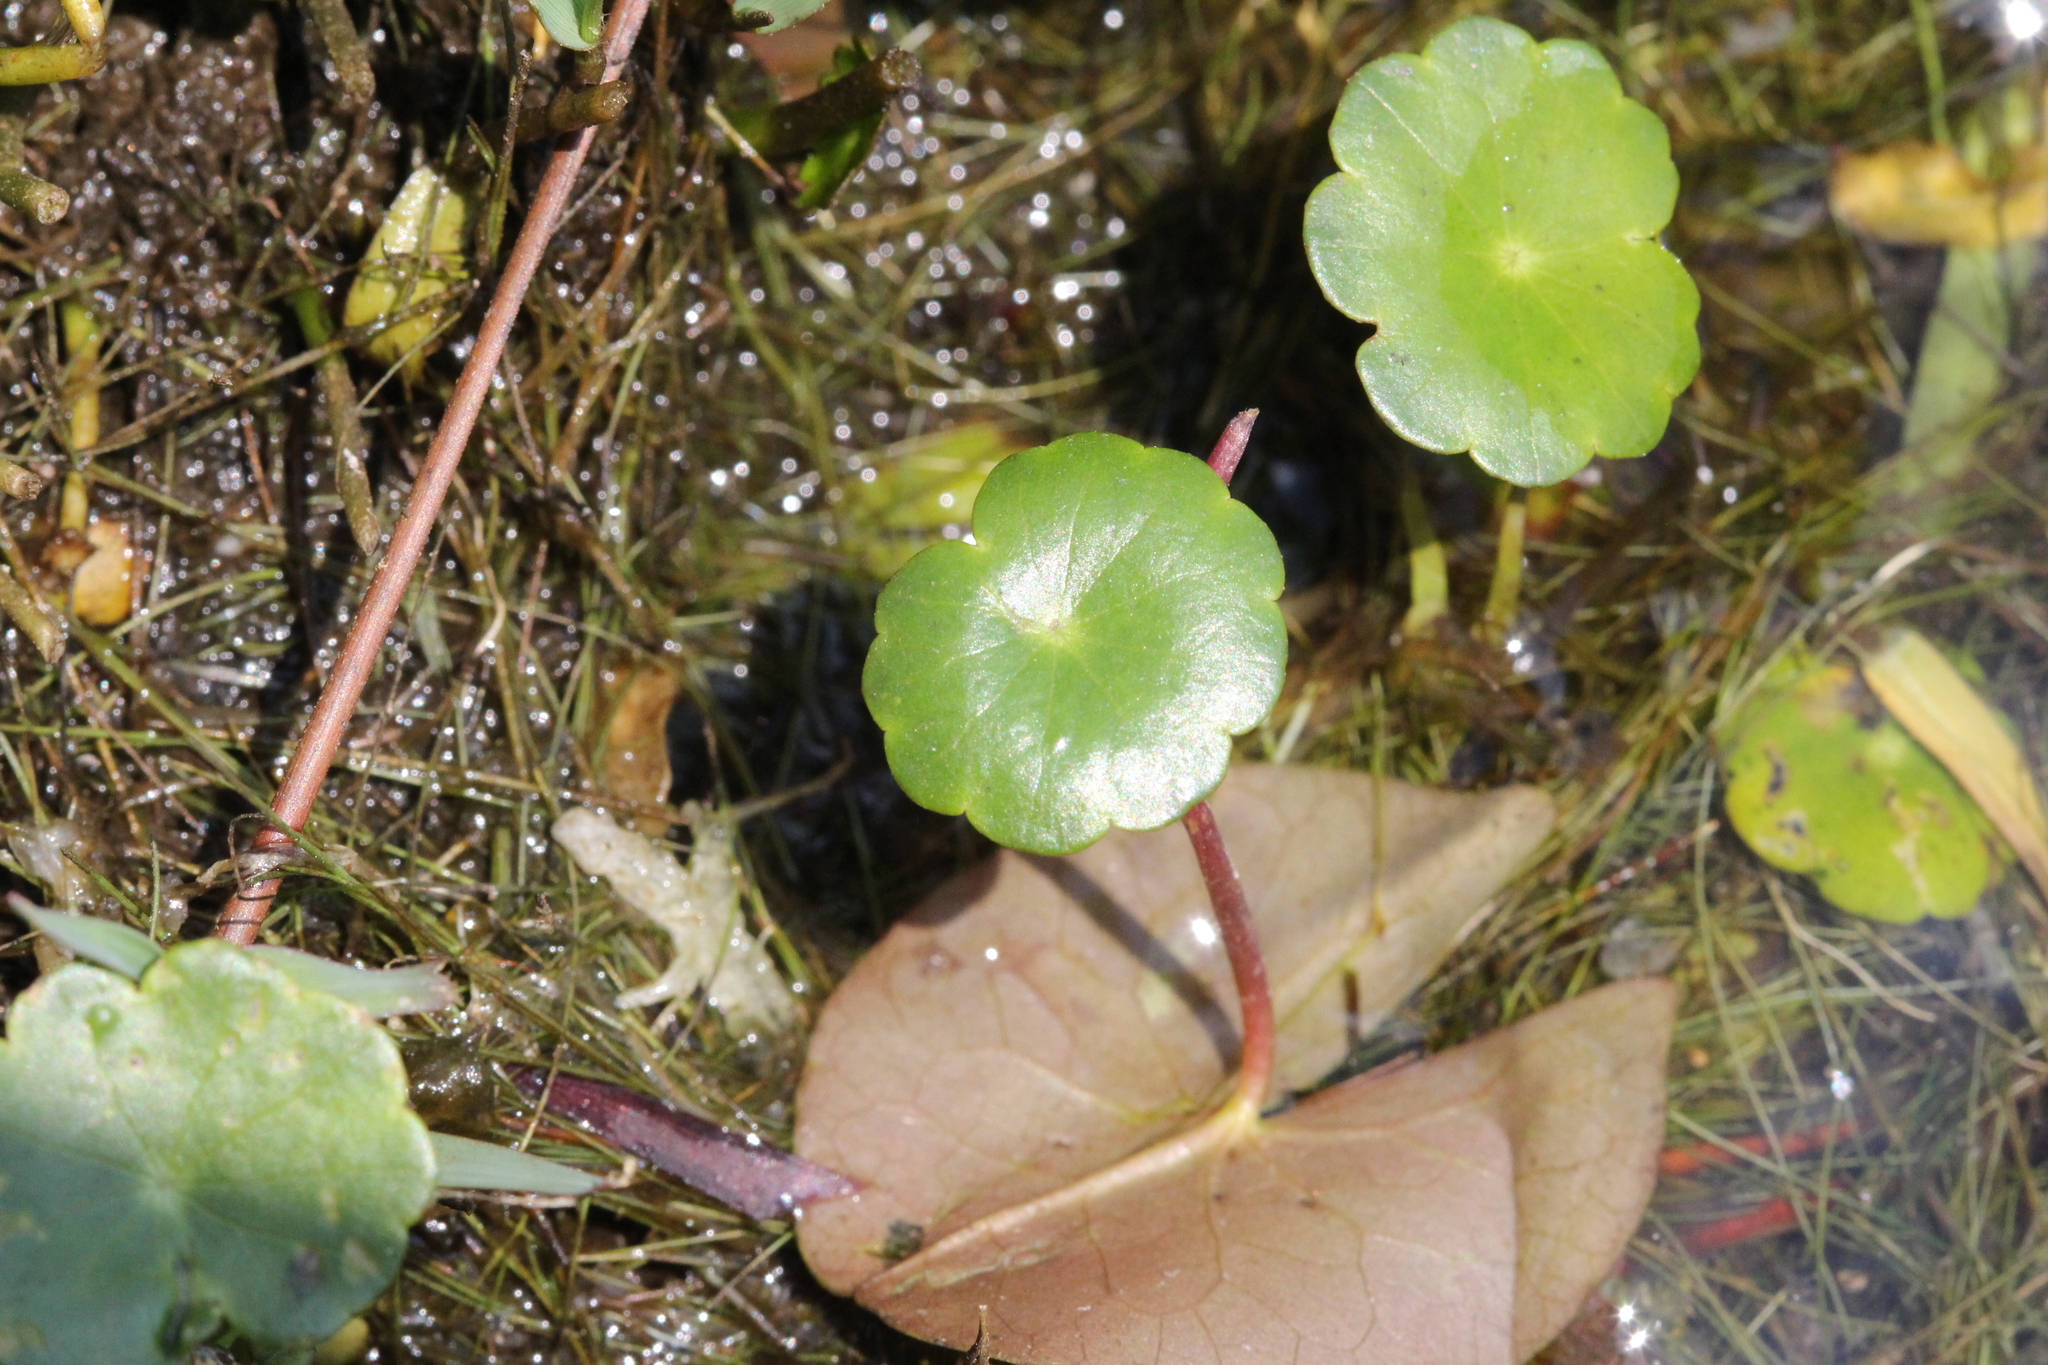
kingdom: Plantae
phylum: Tracheophyta
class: Magnoliopsida
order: Apiales
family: Araliaceae
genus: Hydrocotyle
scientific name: Hydrocotyle umbellata
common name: Water pennywort
